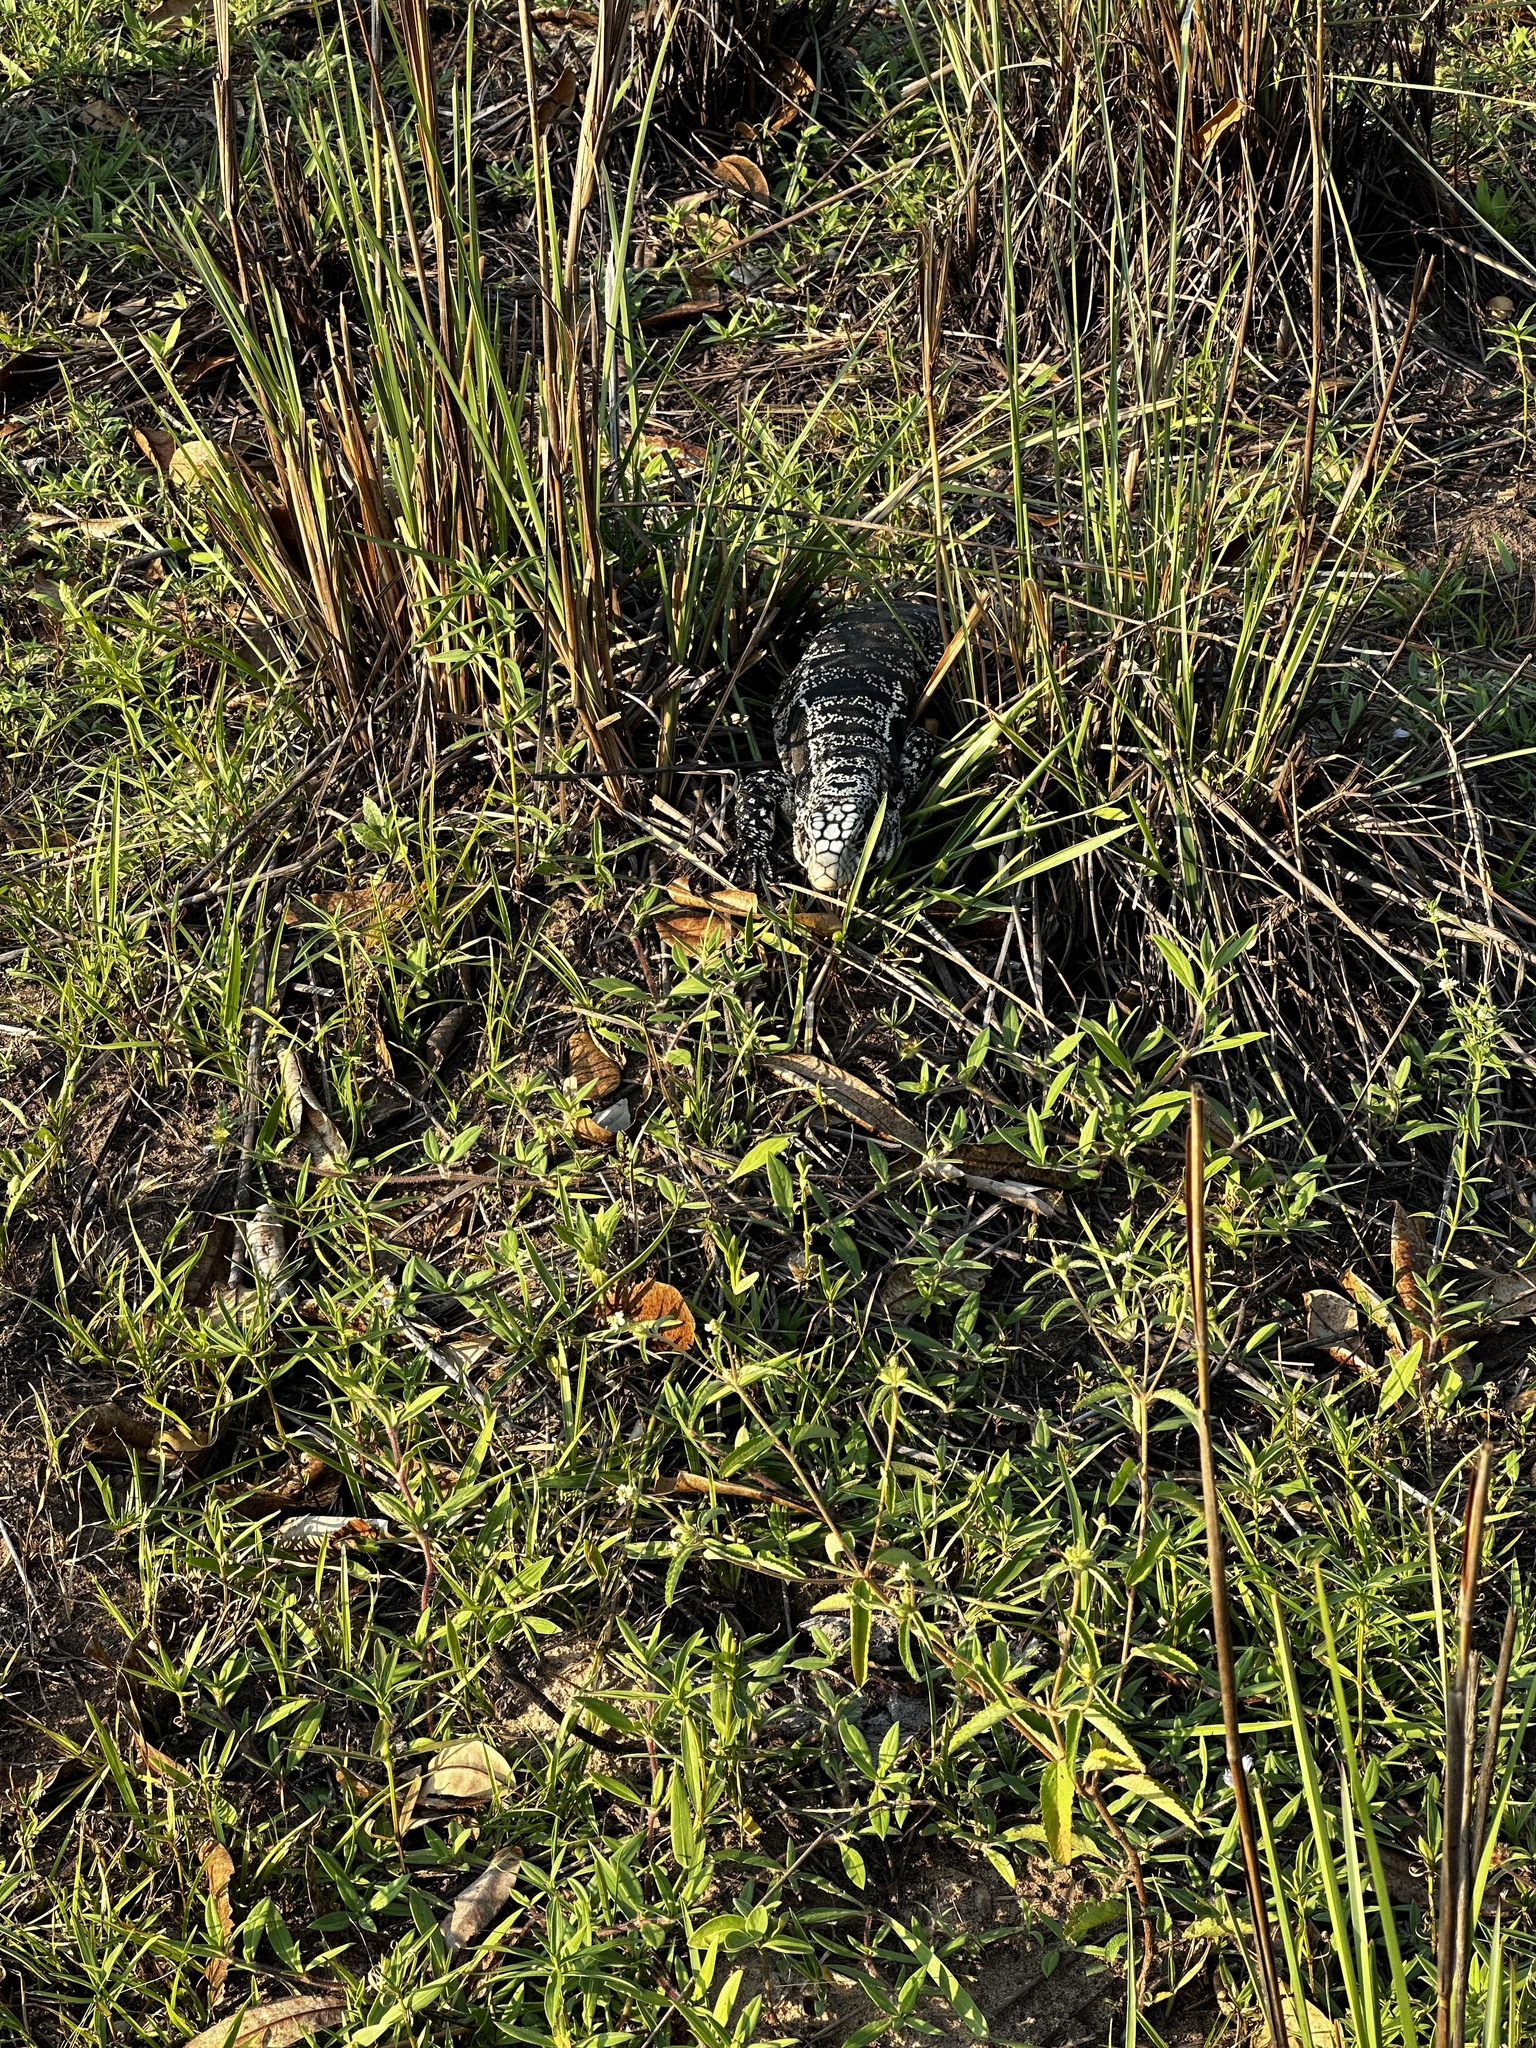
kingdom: Animalia
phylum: Chordata
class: Squamata
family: Teiidae
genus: Salvator
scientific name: Salvator merianae
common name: Argentine black and white tegu
